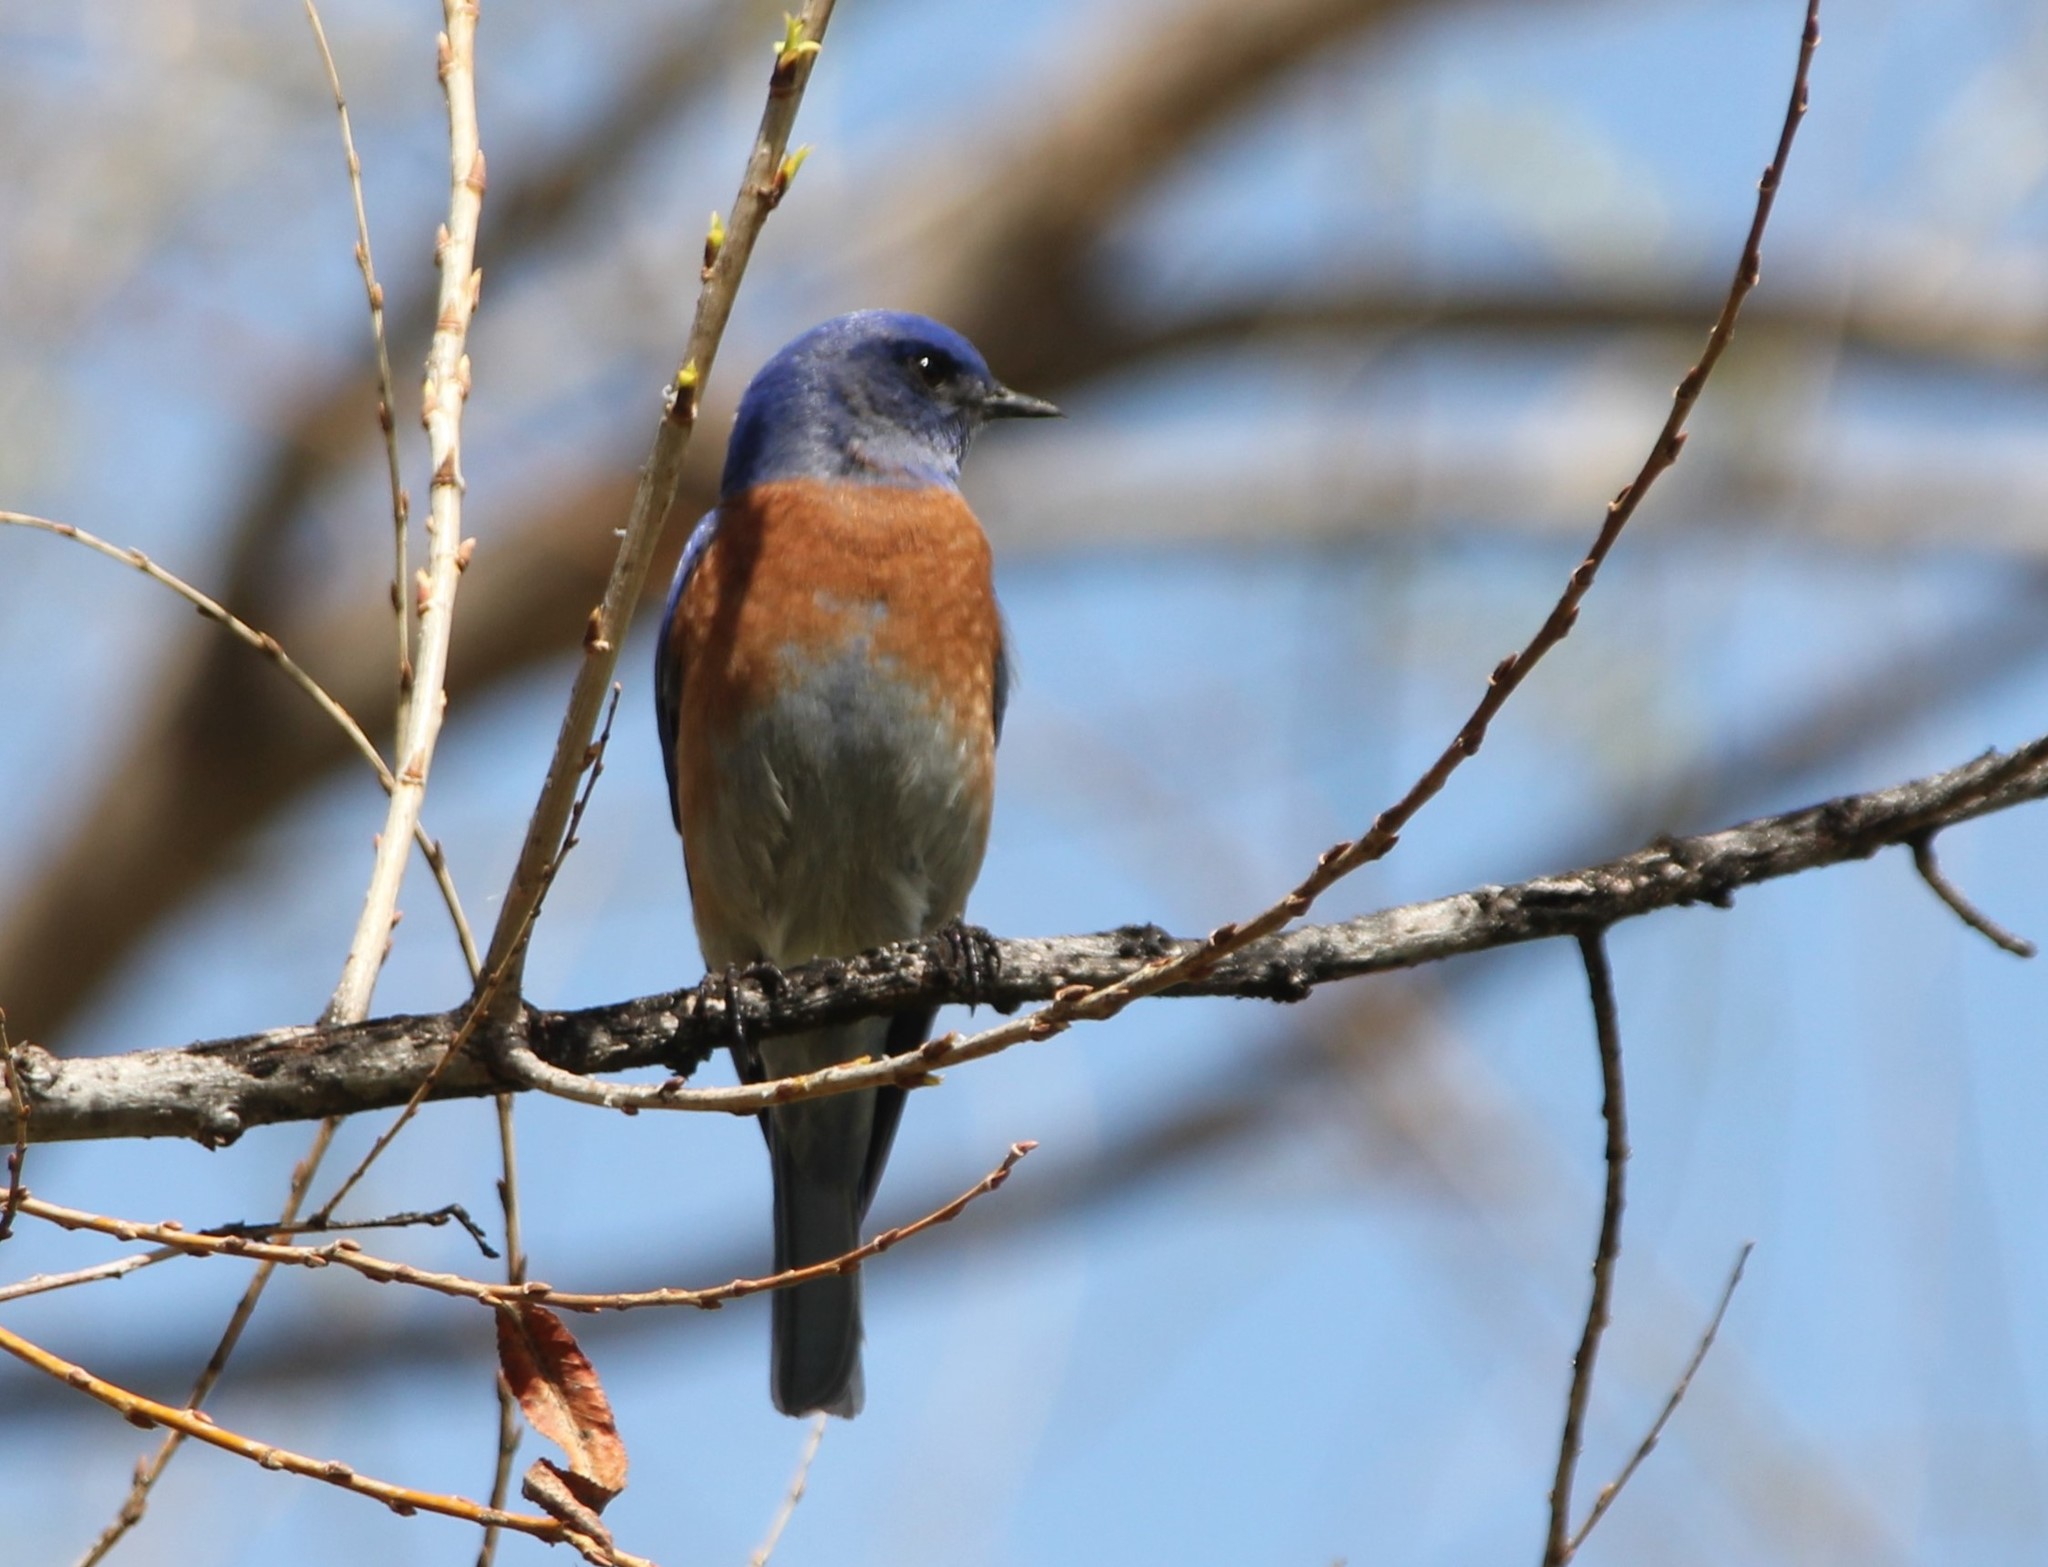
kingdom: Animalia
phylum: Chordata
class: Aves
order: Passeriformes
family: Turdidae
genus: Sialia
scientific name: Sialia mexicana
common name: Western bluebird
